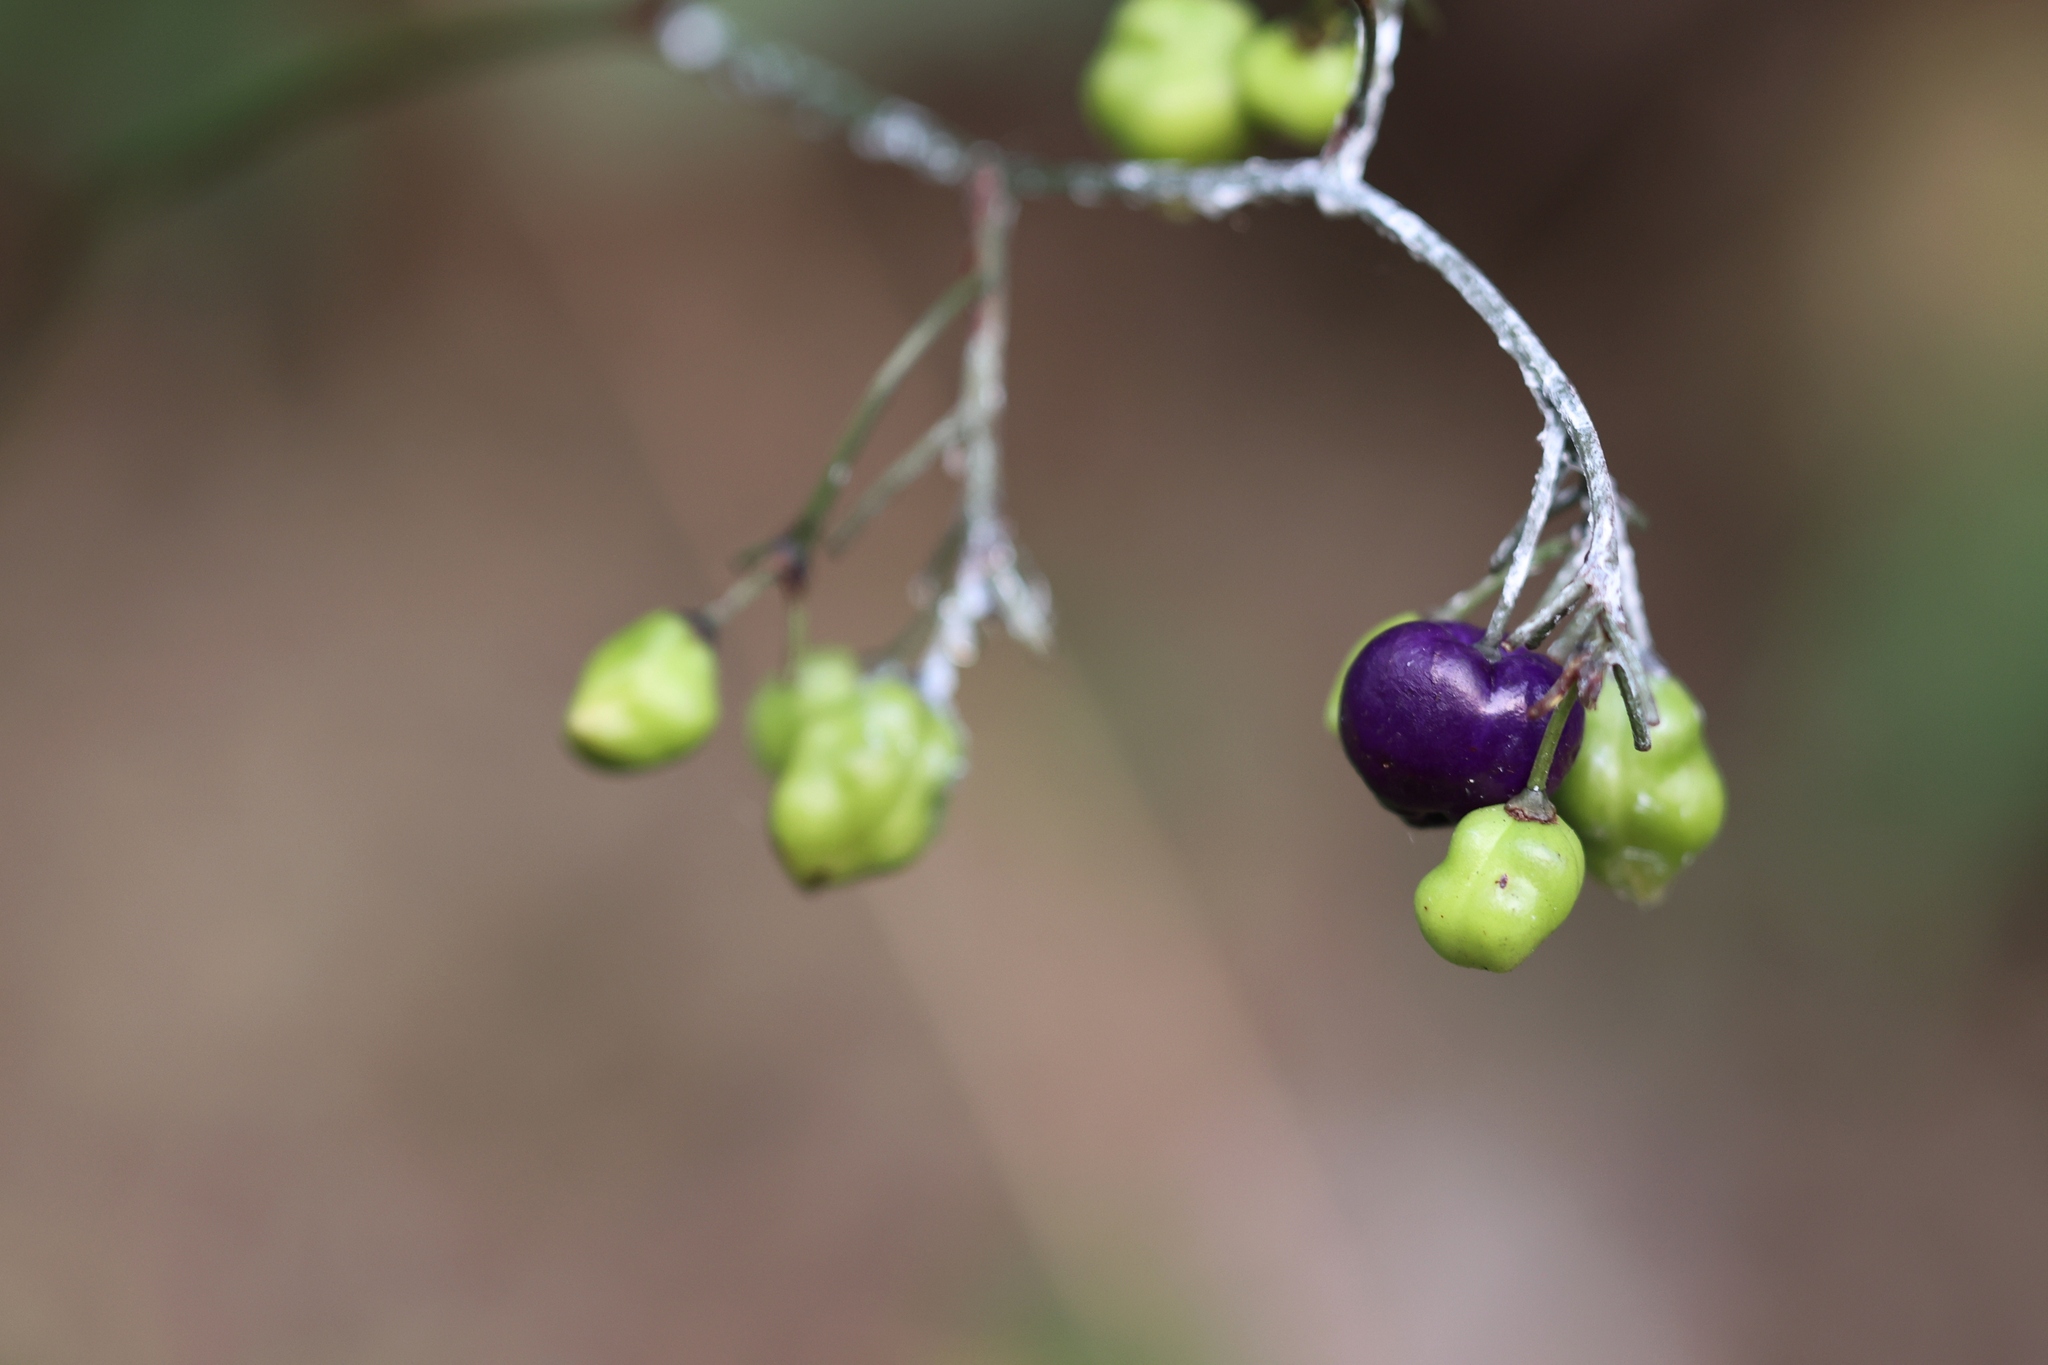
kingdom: Plantae
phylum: Tracheophyta
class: Liliopsida
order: Asparagales
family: Asphodelaceae
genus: Dianella
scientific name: Dianella ensifolia
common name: New zealand lilyplant
